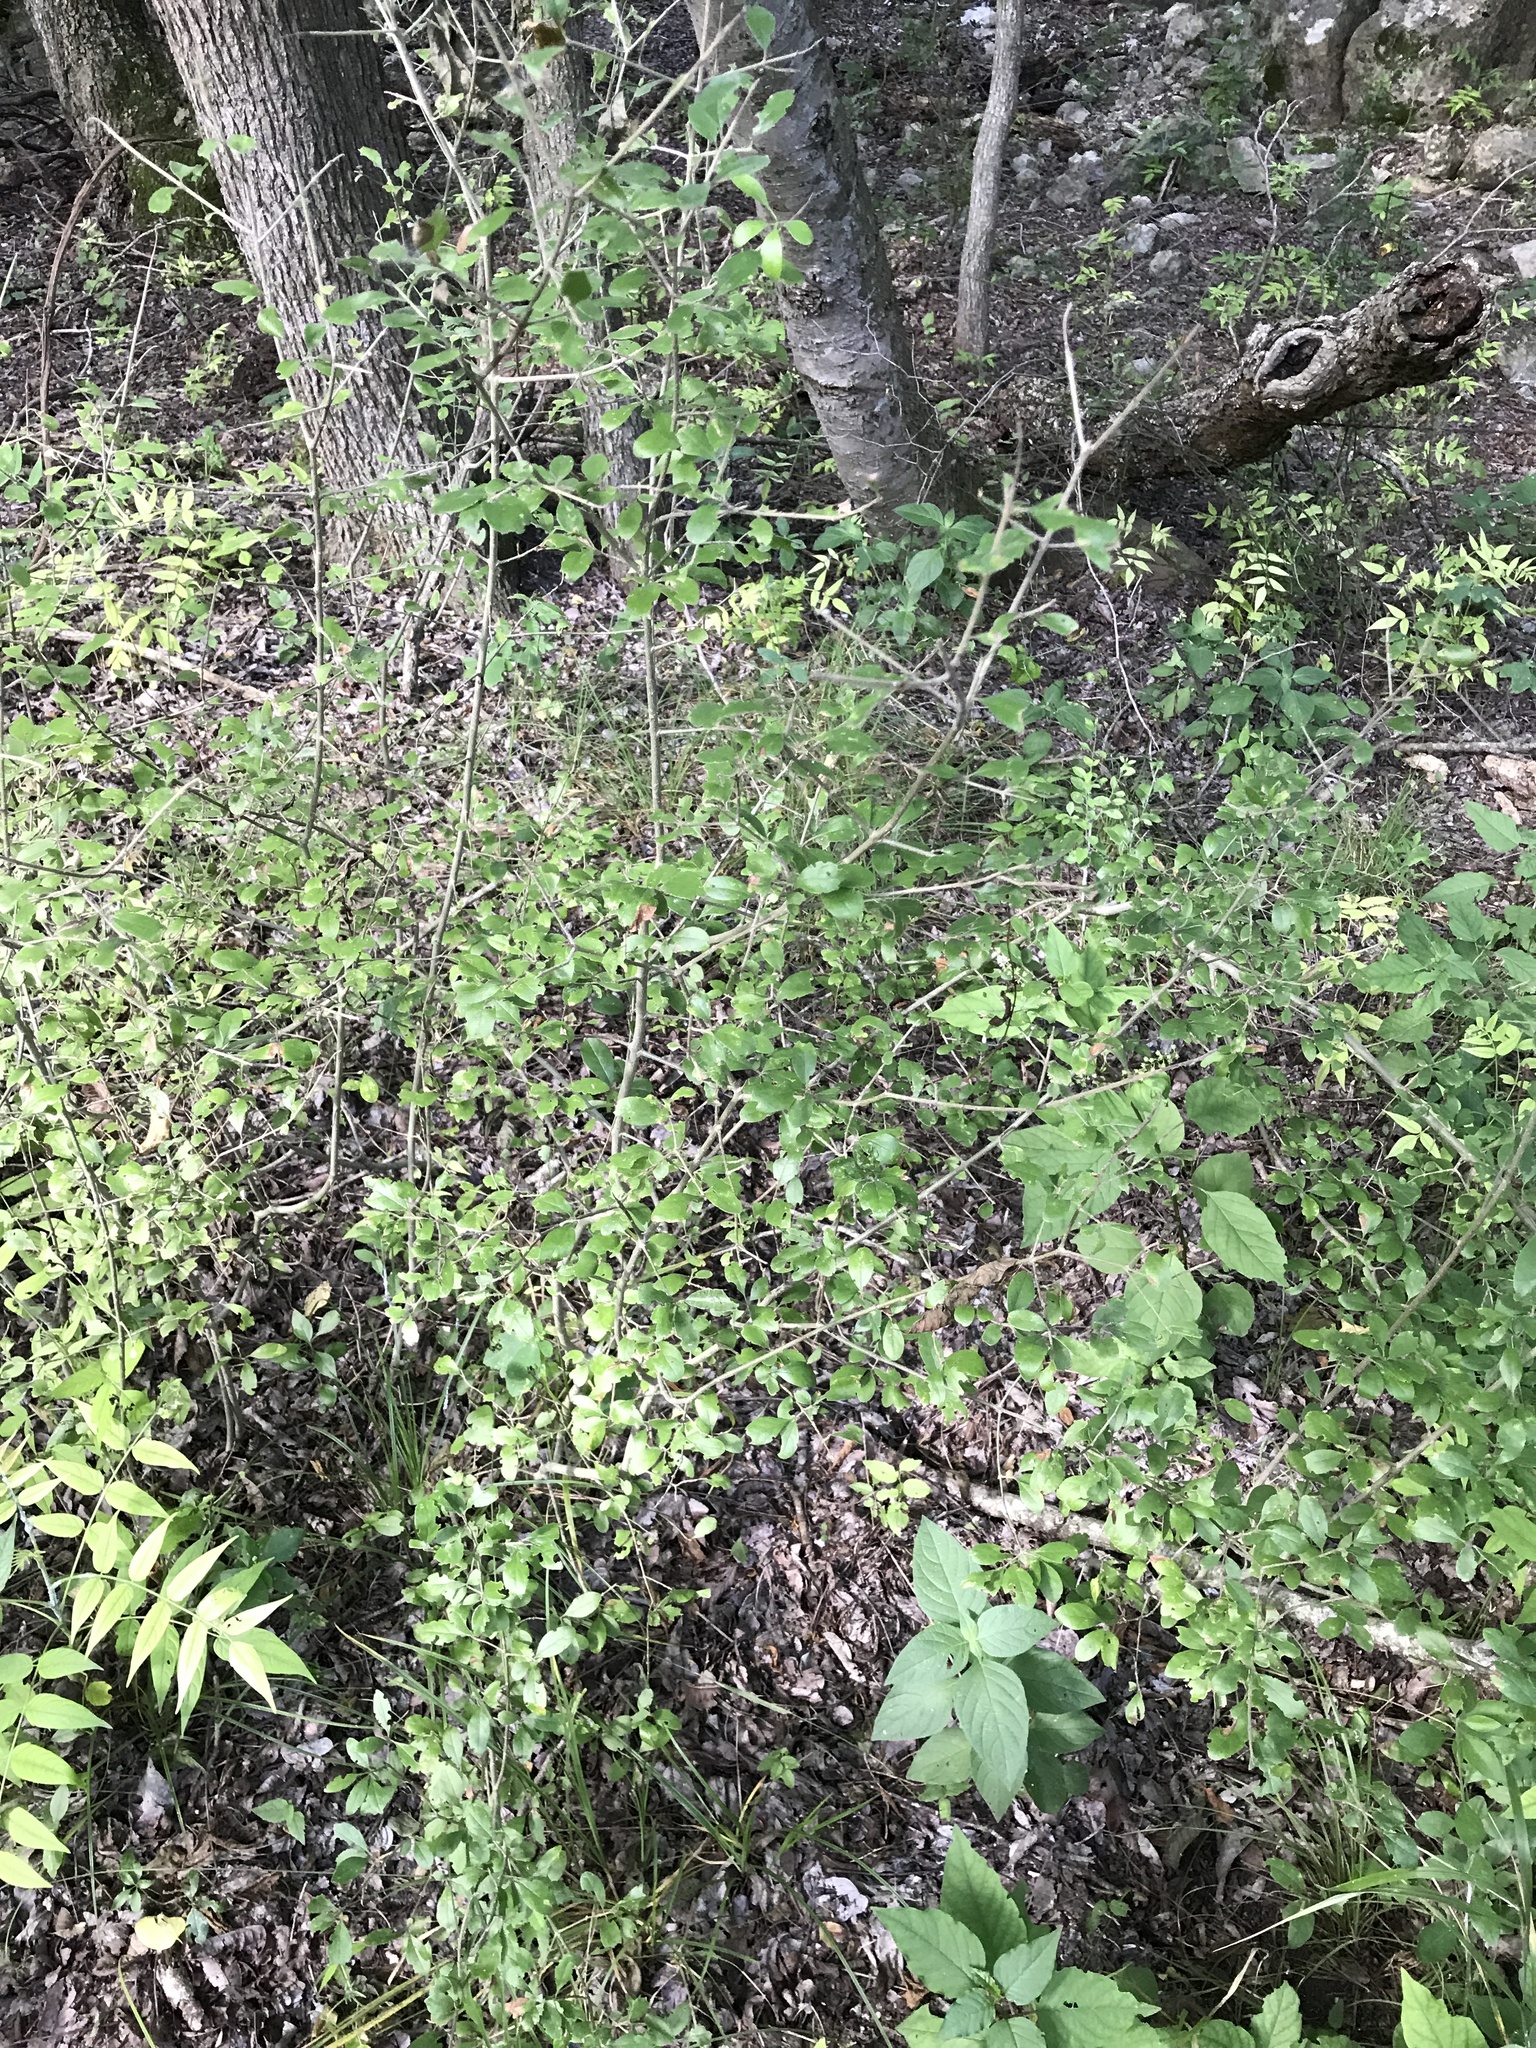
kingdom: Plantae
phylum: Tracheophyta
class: Magnoliopsida
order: Lamiales
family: Oleaceae
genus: Forestiera
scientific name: Forestiera pubescens
